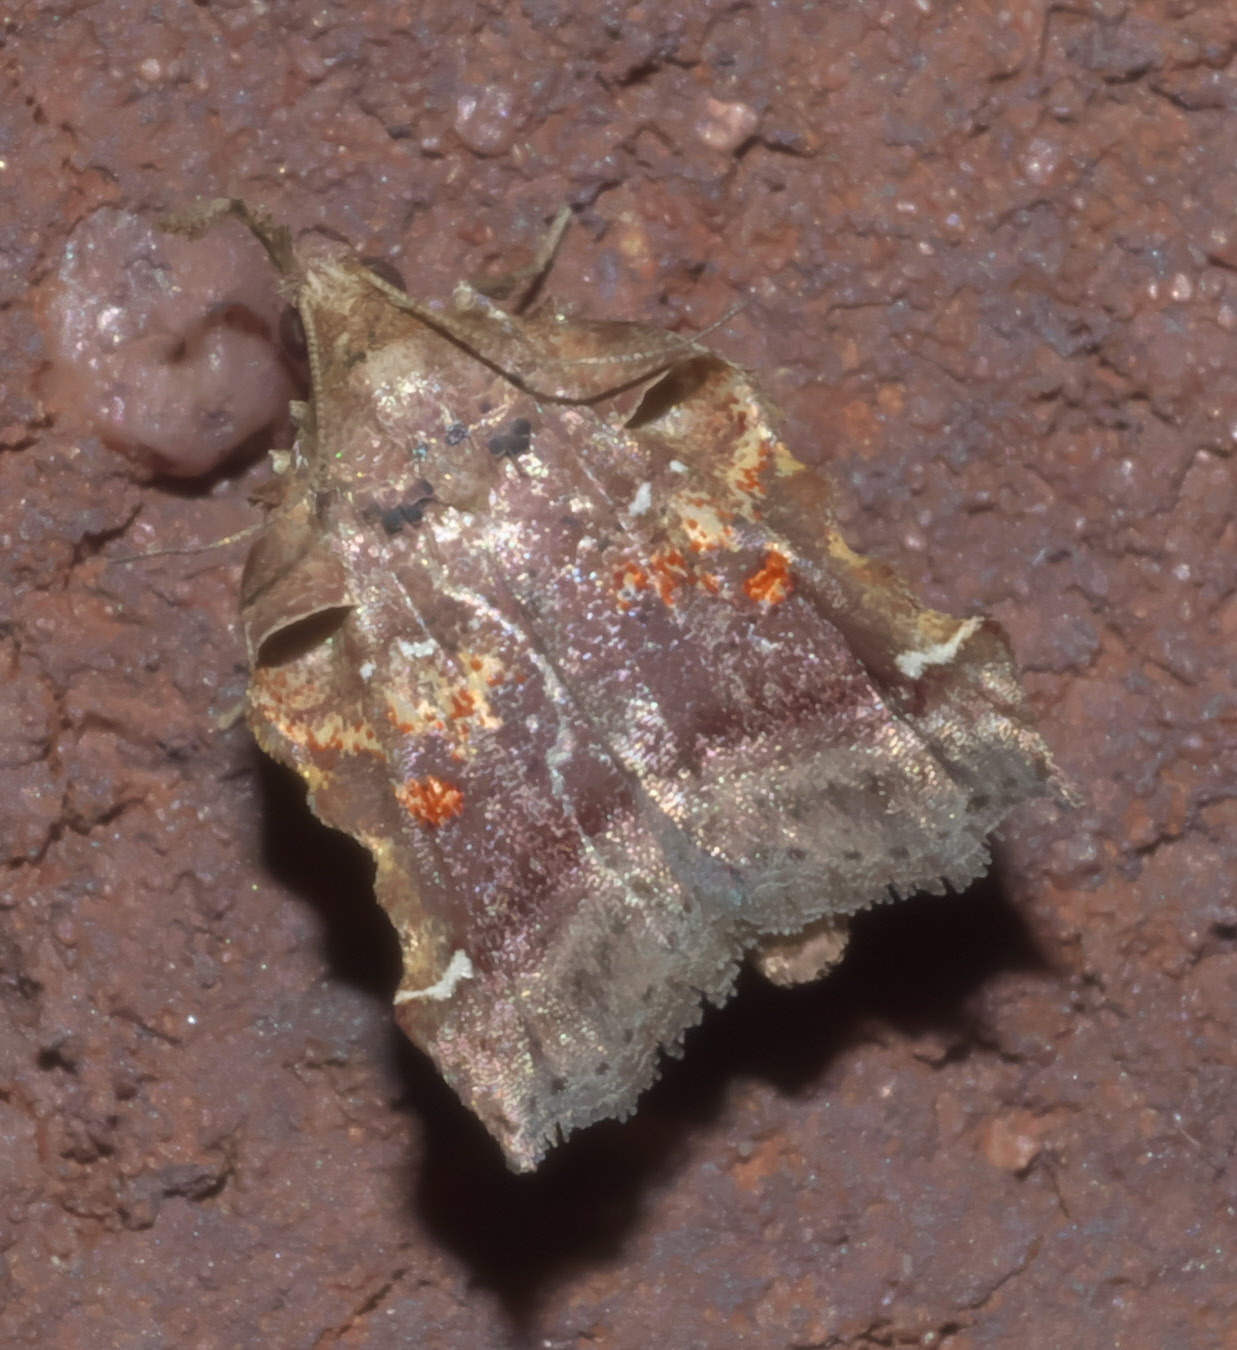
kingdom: Animalia
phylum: Arthropoda
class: Insecta
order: Lepidoptera
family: Pyralidae
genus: Clydonopteron
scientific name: Clydonopteron sacculana
